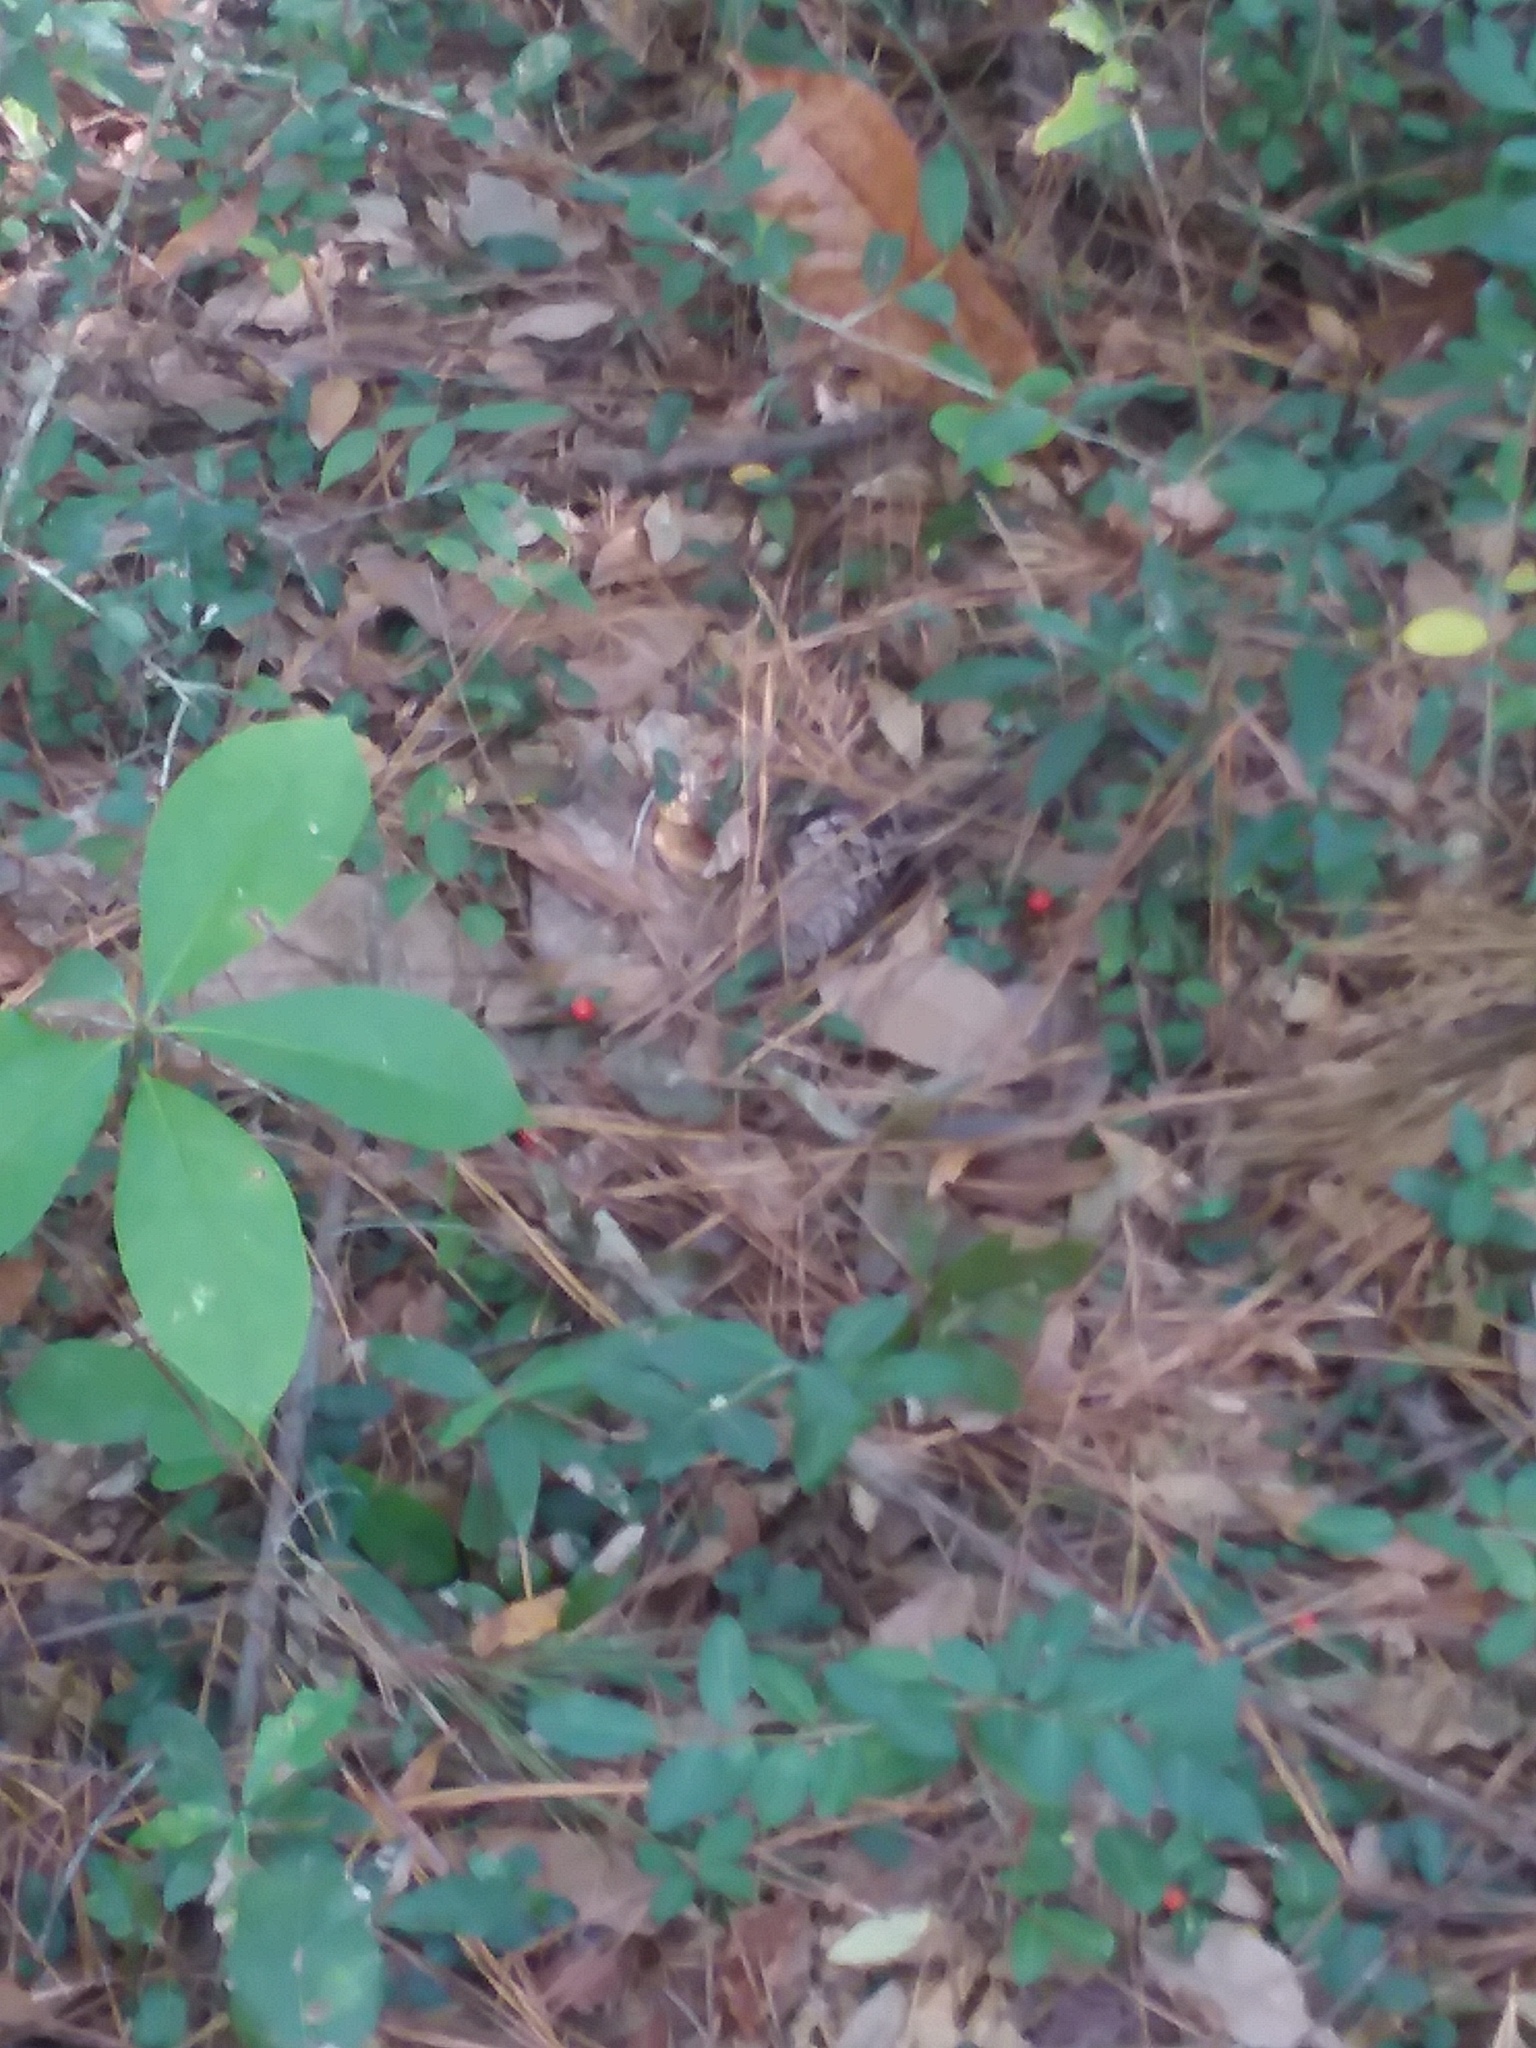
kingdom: Plantae
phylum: Tracheophyta
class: Magnoliopsida
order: Gentianales
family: Rubiaceae
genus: Mitchella
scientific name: Mitchella repens
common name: Partridge-berry
